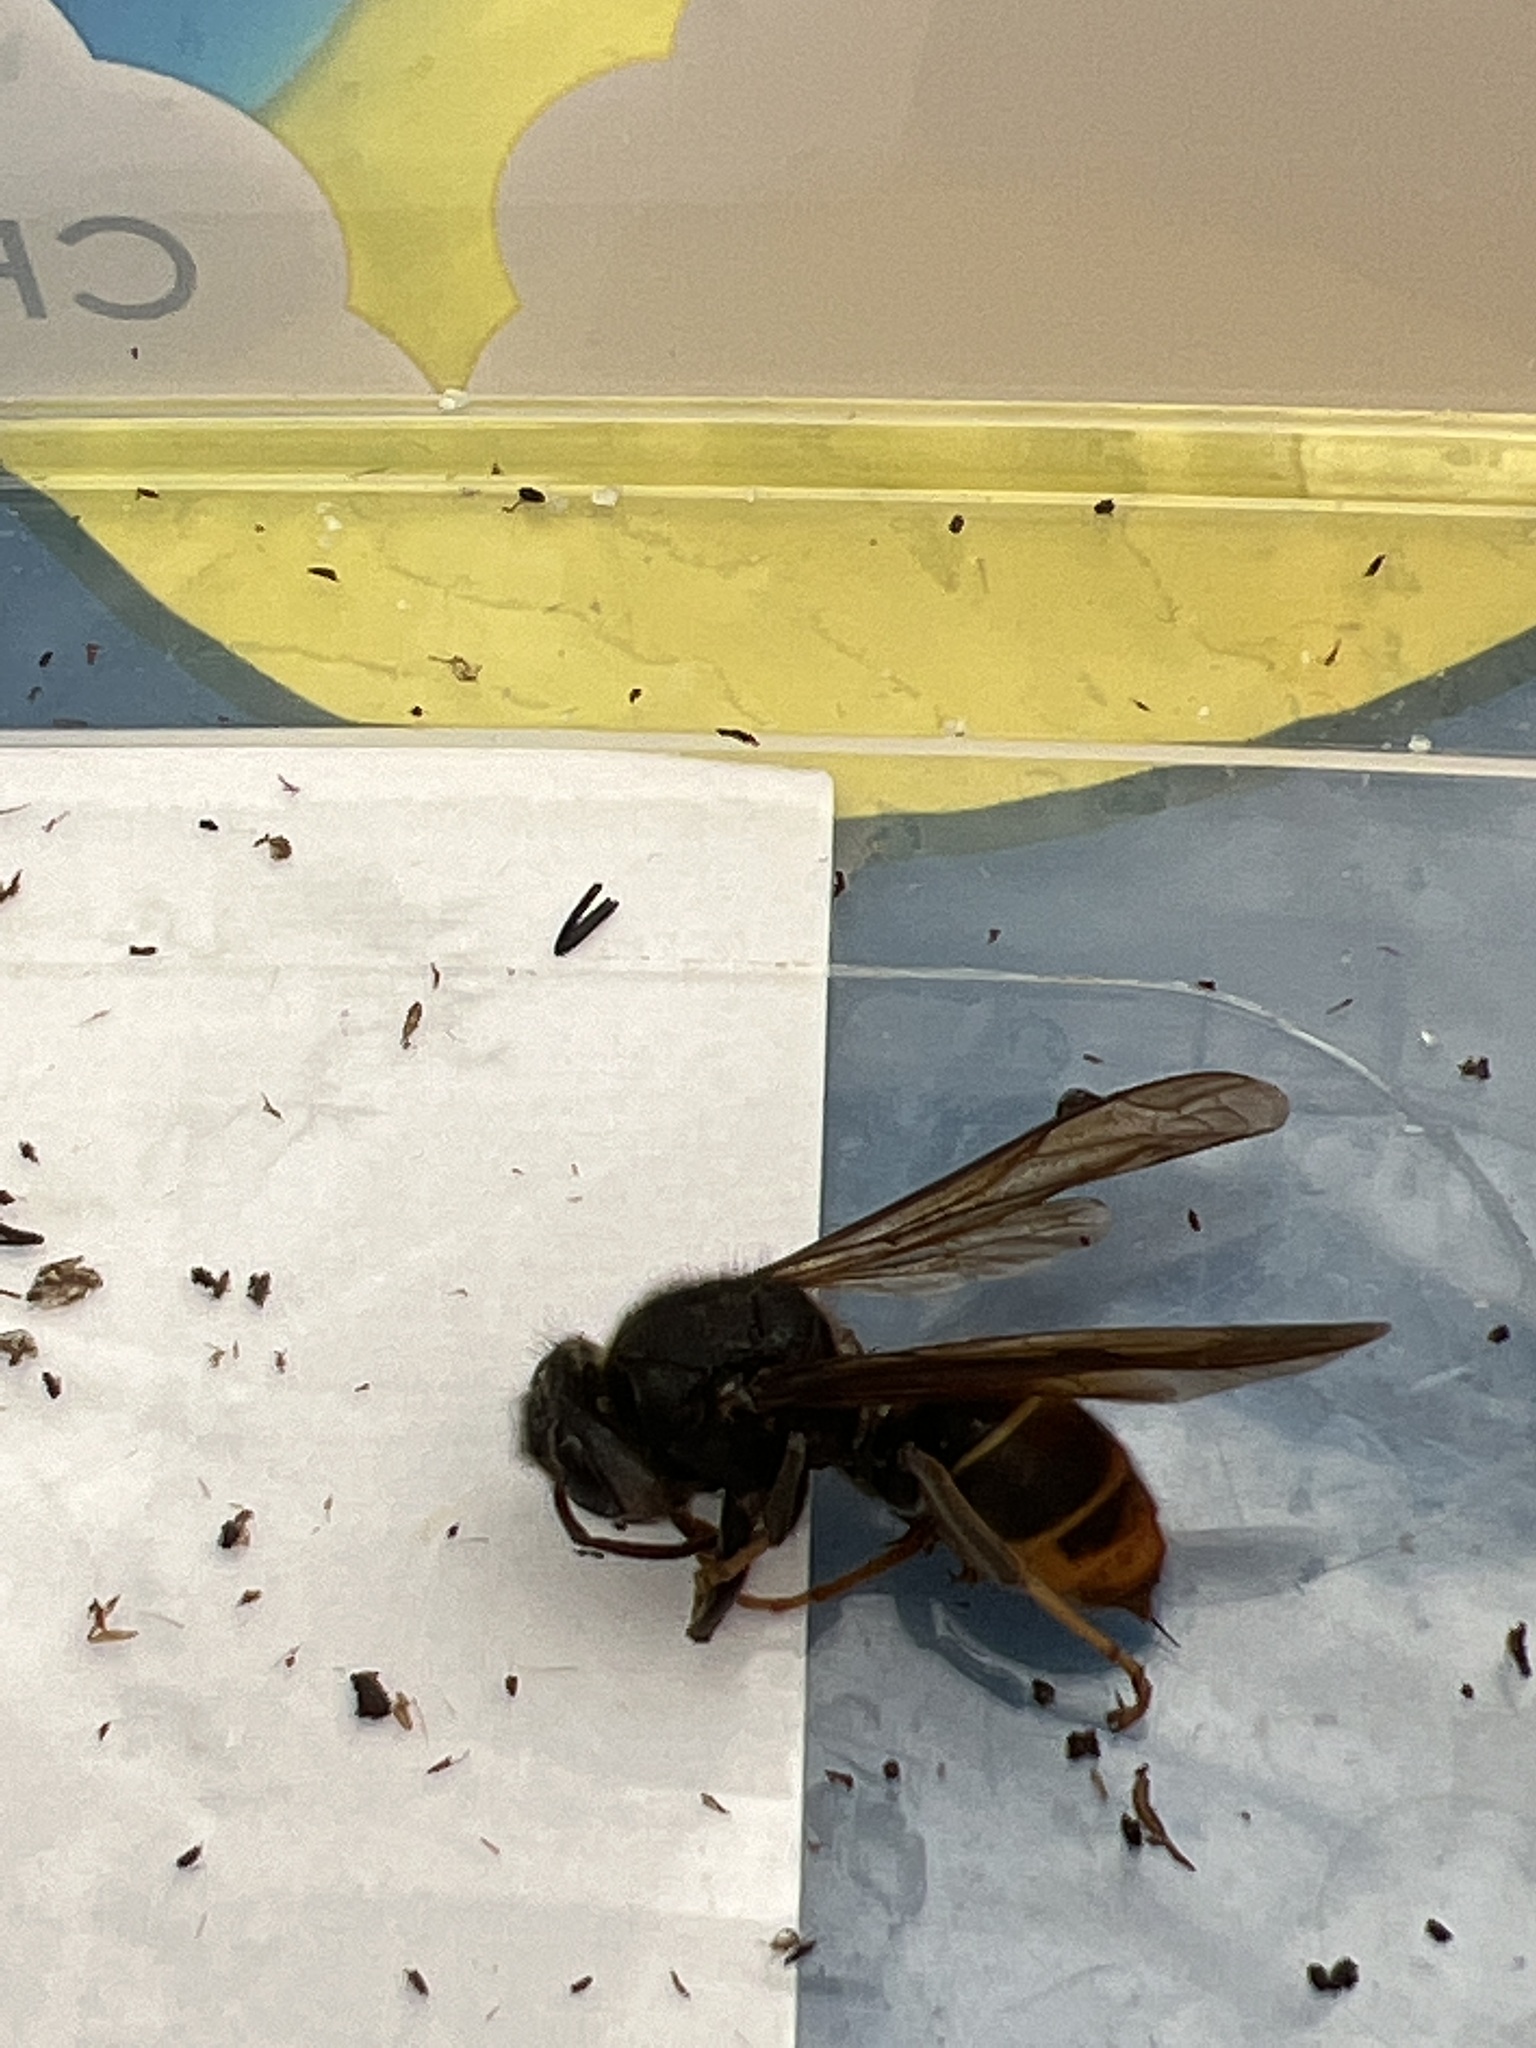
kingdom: Animalia
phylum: Arthropoda
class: Insecta
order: Hymenoptera
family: Vespidae
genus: Vespa
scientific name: Vespa velutina
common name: Asian hornet
